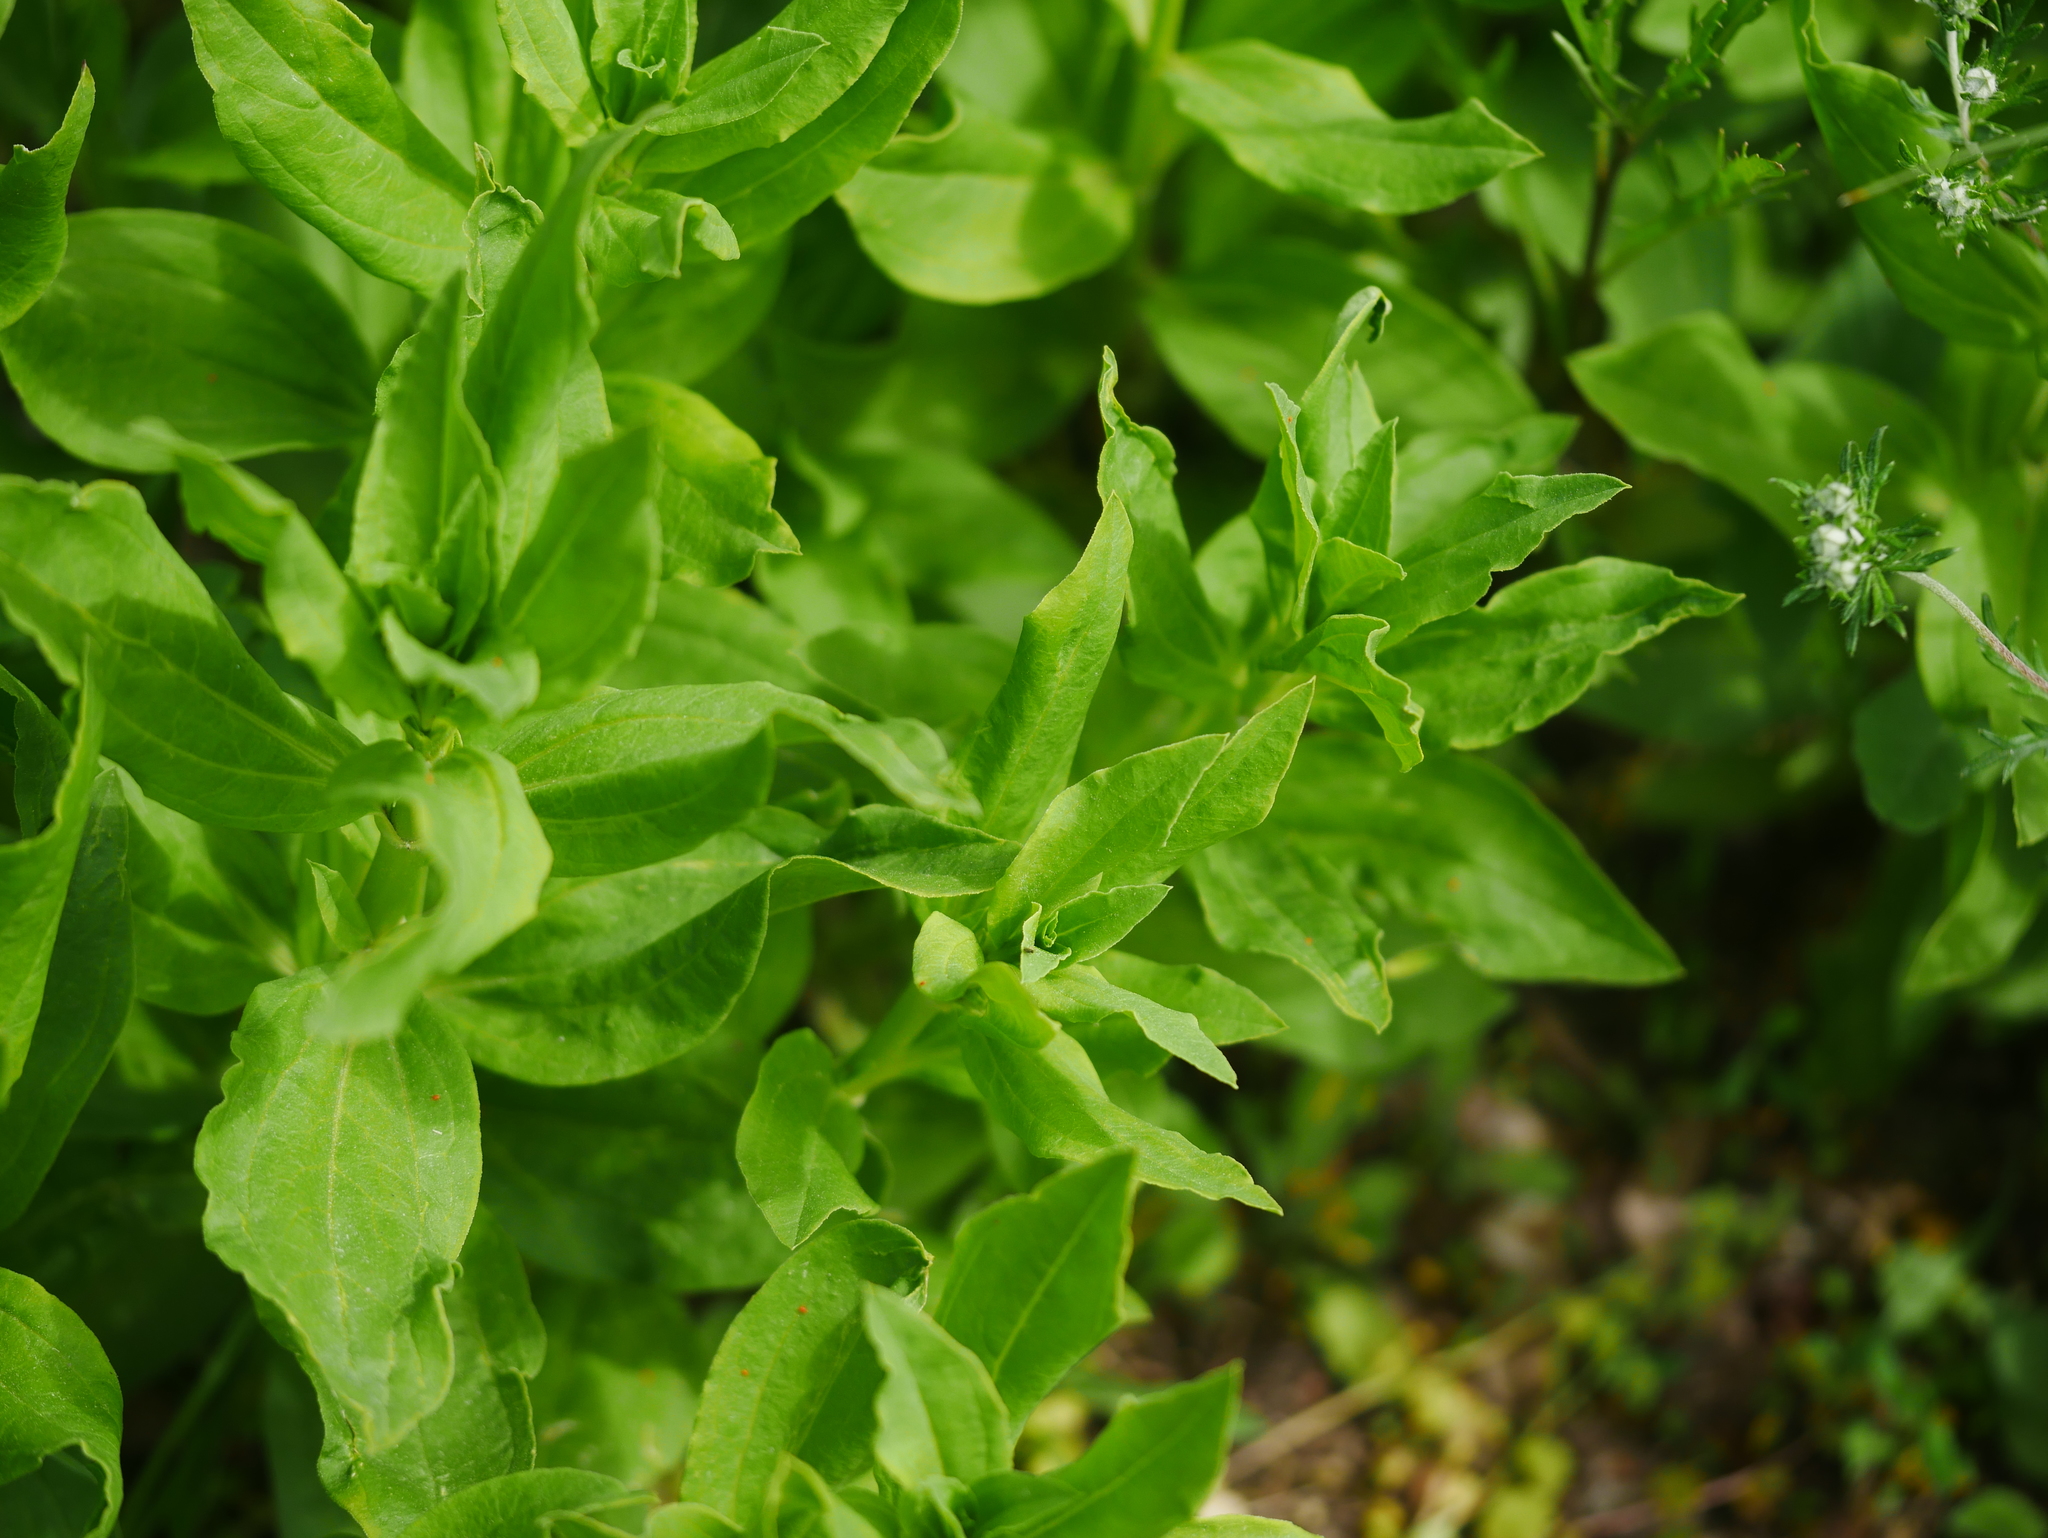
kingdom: Plantae
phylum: Tracheophyta
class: Magnoliopsida
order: Caryophyllales
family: Caryophyllaceae
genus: Saponaria
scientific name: Saponaria officinalis
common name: Soapwort
